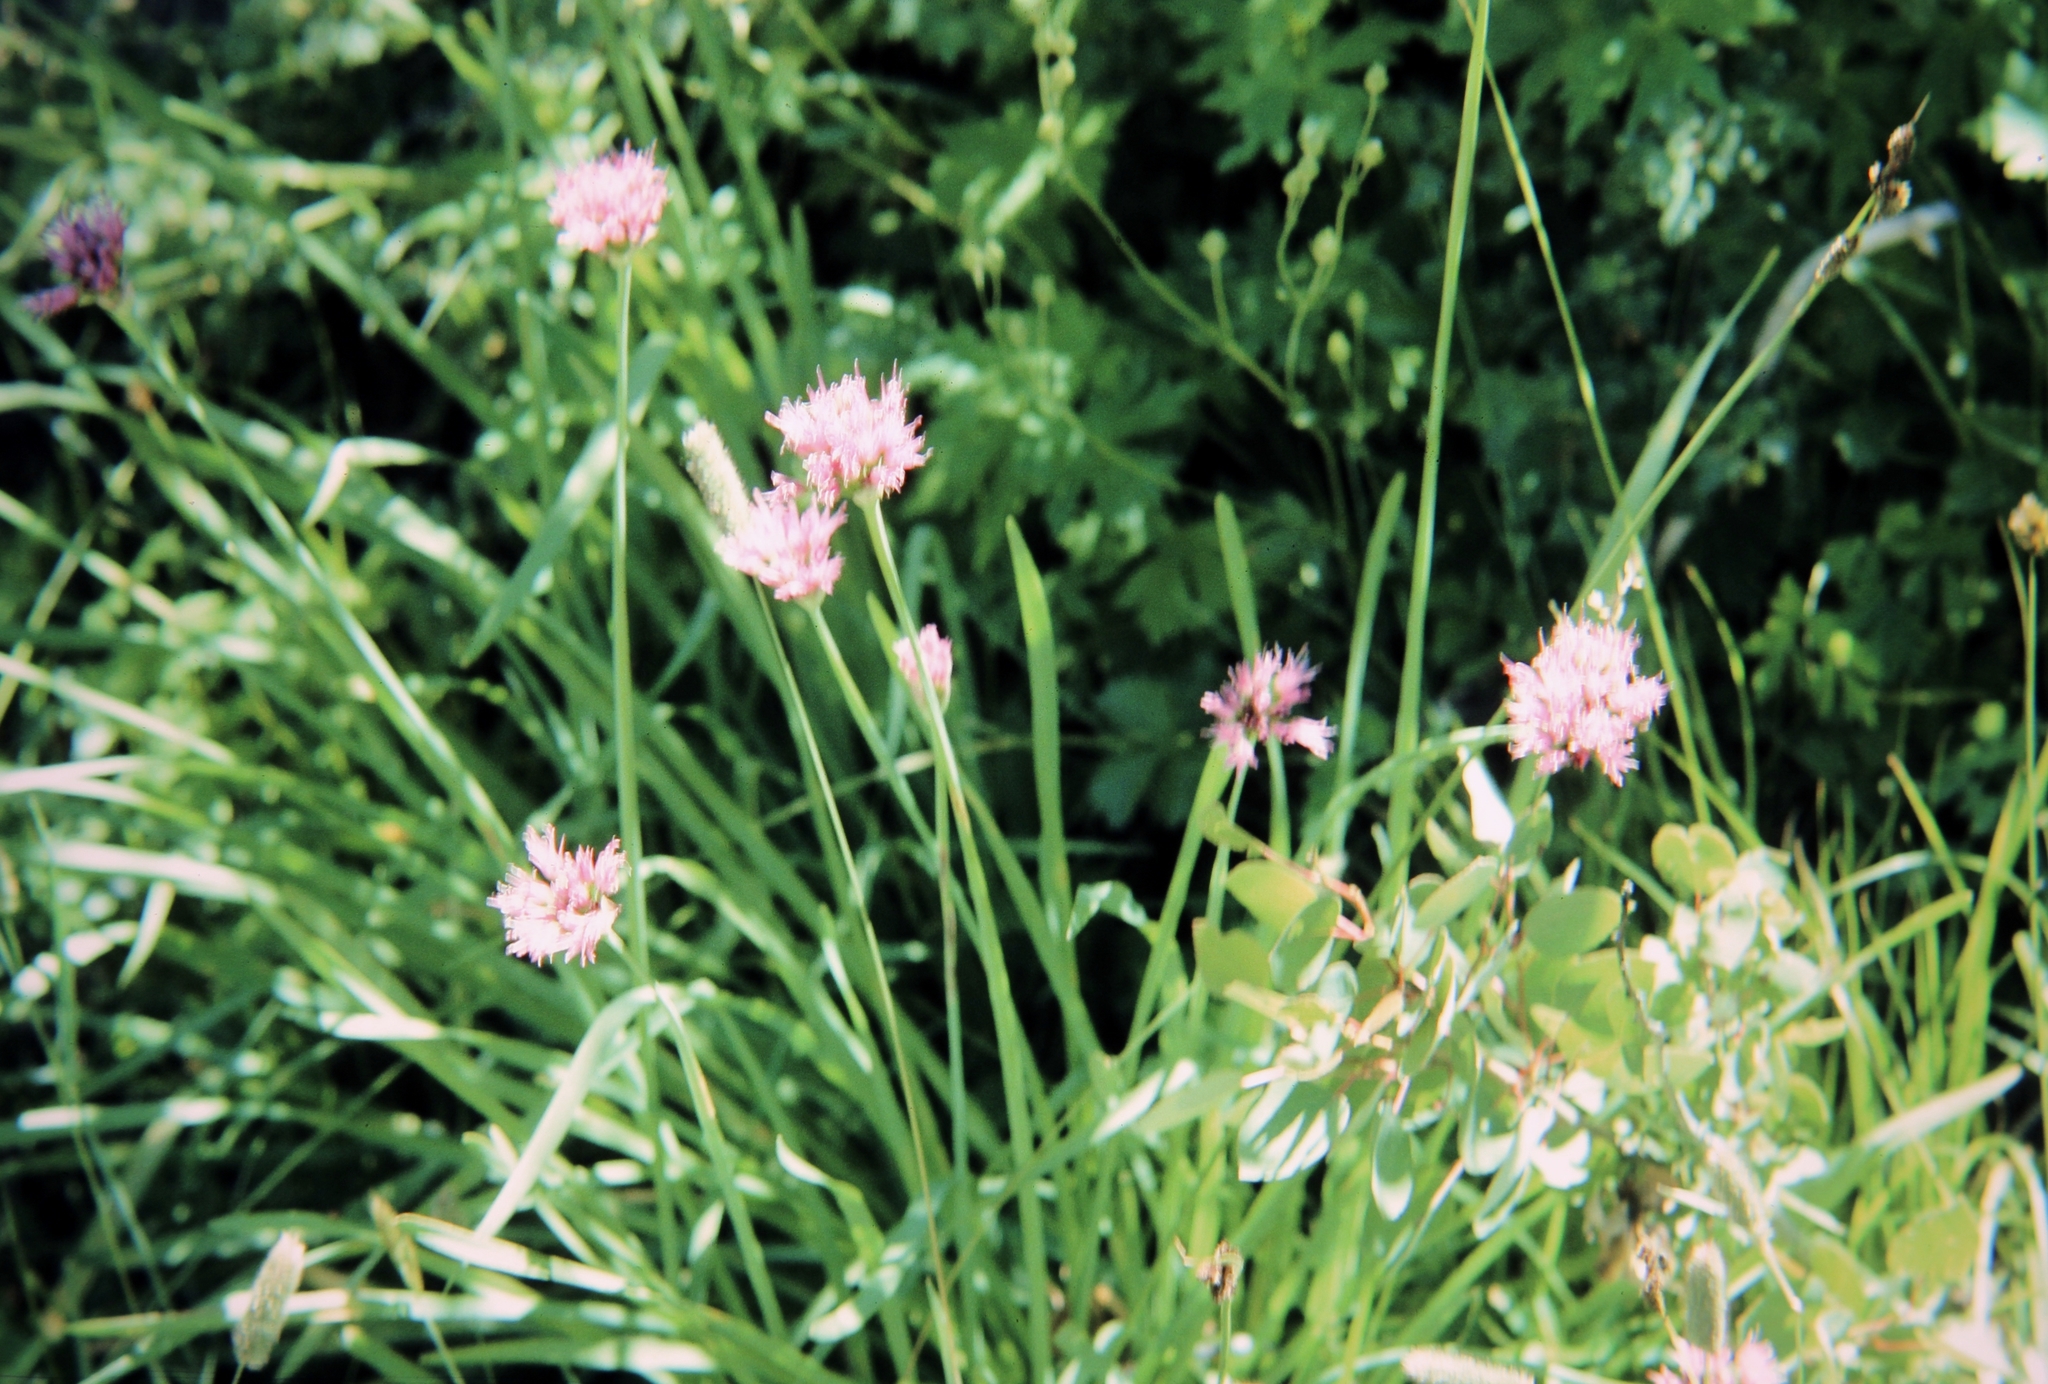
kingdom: Plantae
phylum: Tracheophyta
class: Liliopsida
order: Asparagales
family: Amaryllidaceae
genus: Allium
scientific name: Allium validum
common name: Pacific mountain onion
